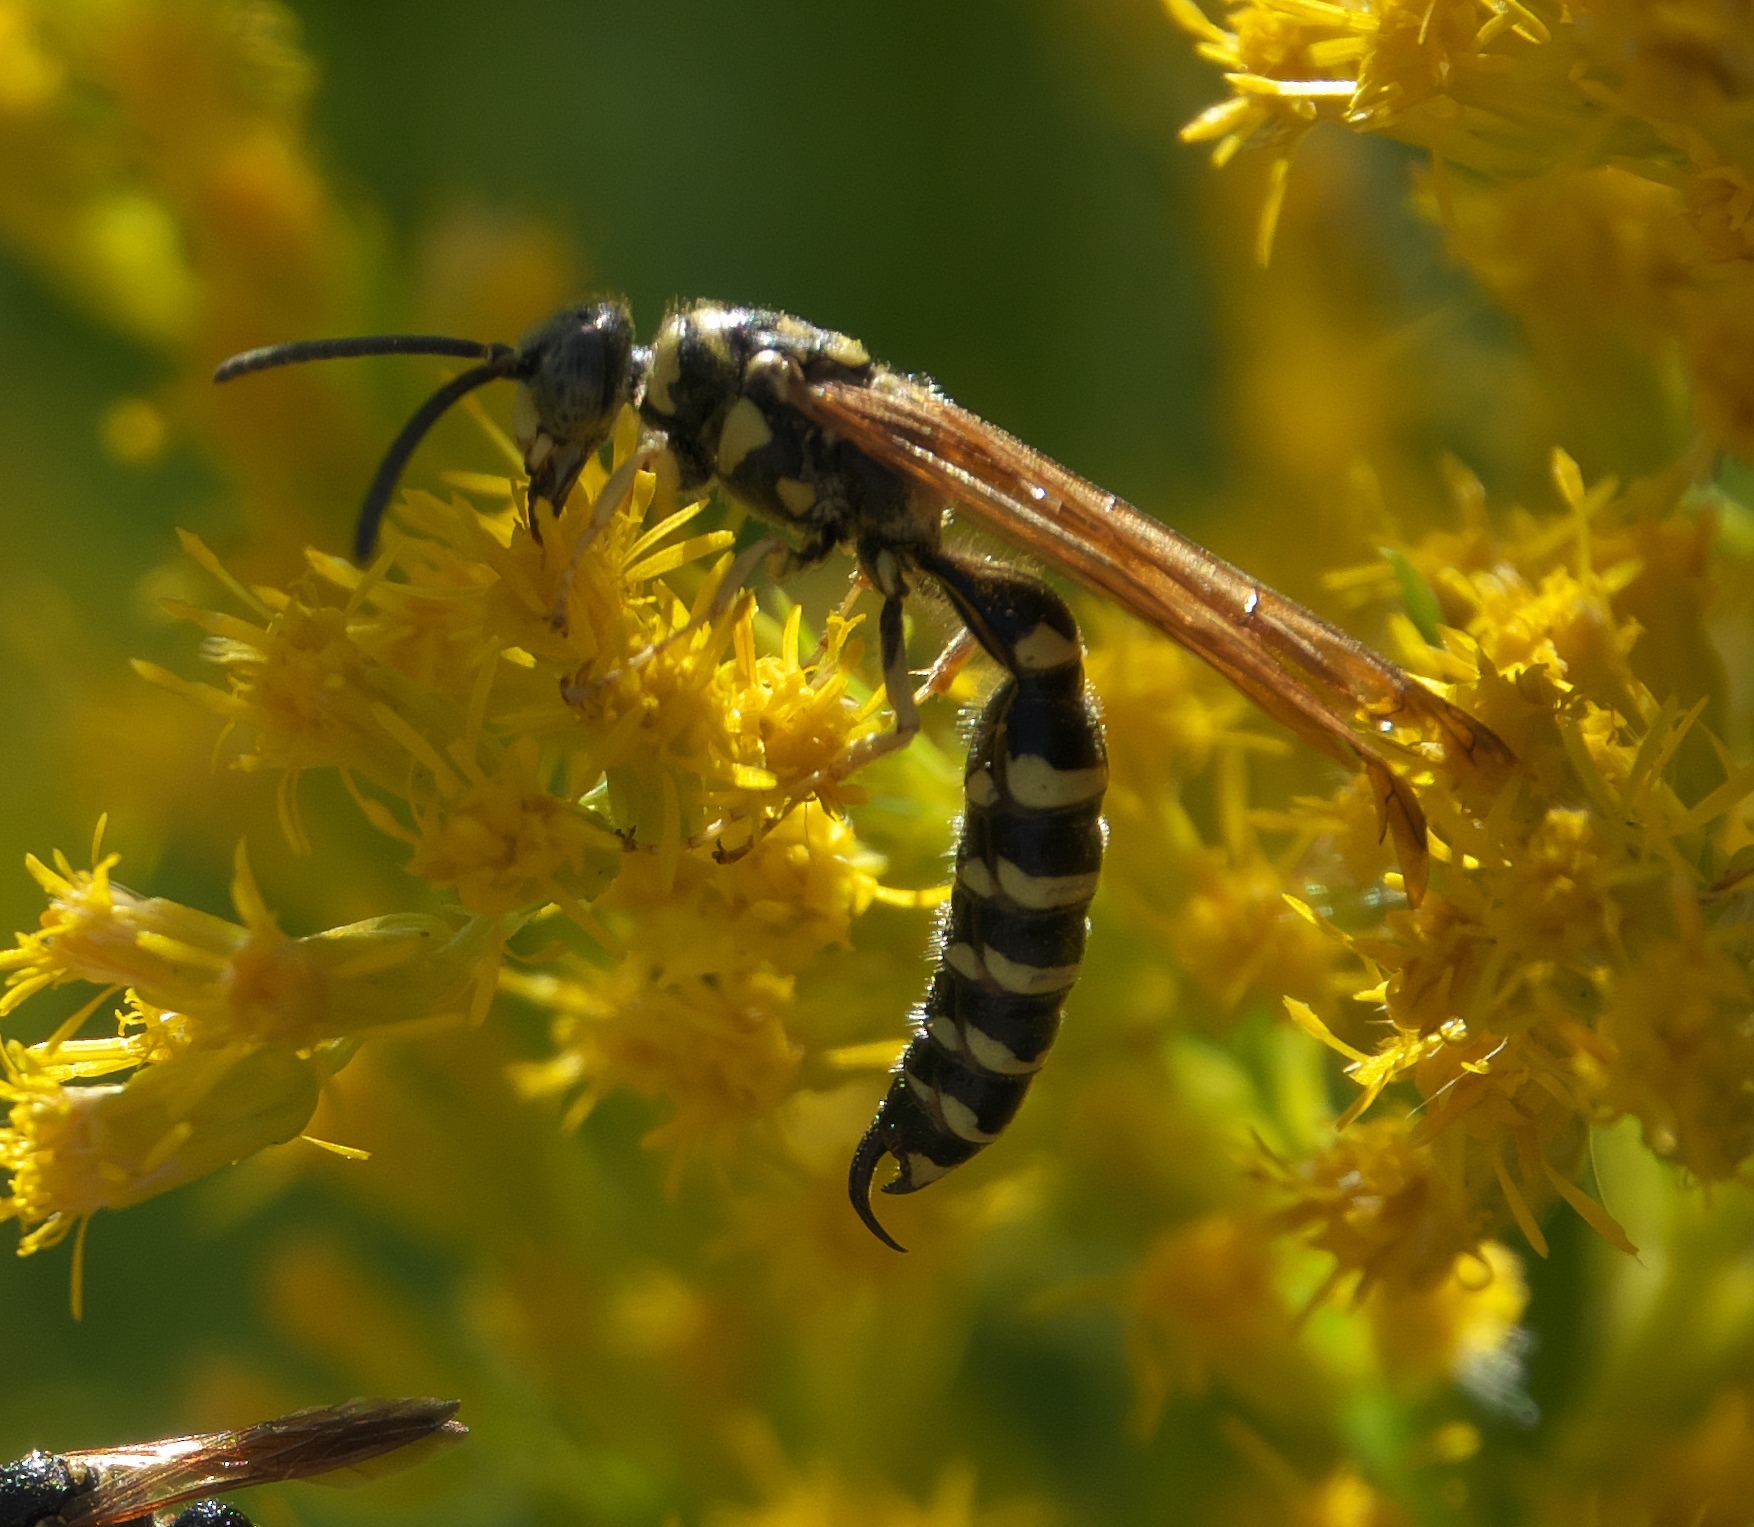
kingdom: Animalia
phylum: Arthropoda
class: Insecta
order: Hymenoptera
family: Tiphiidae
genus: Myzinum
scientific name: Myzinum quinquecinctum
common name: Five-banded thynnid wasp
